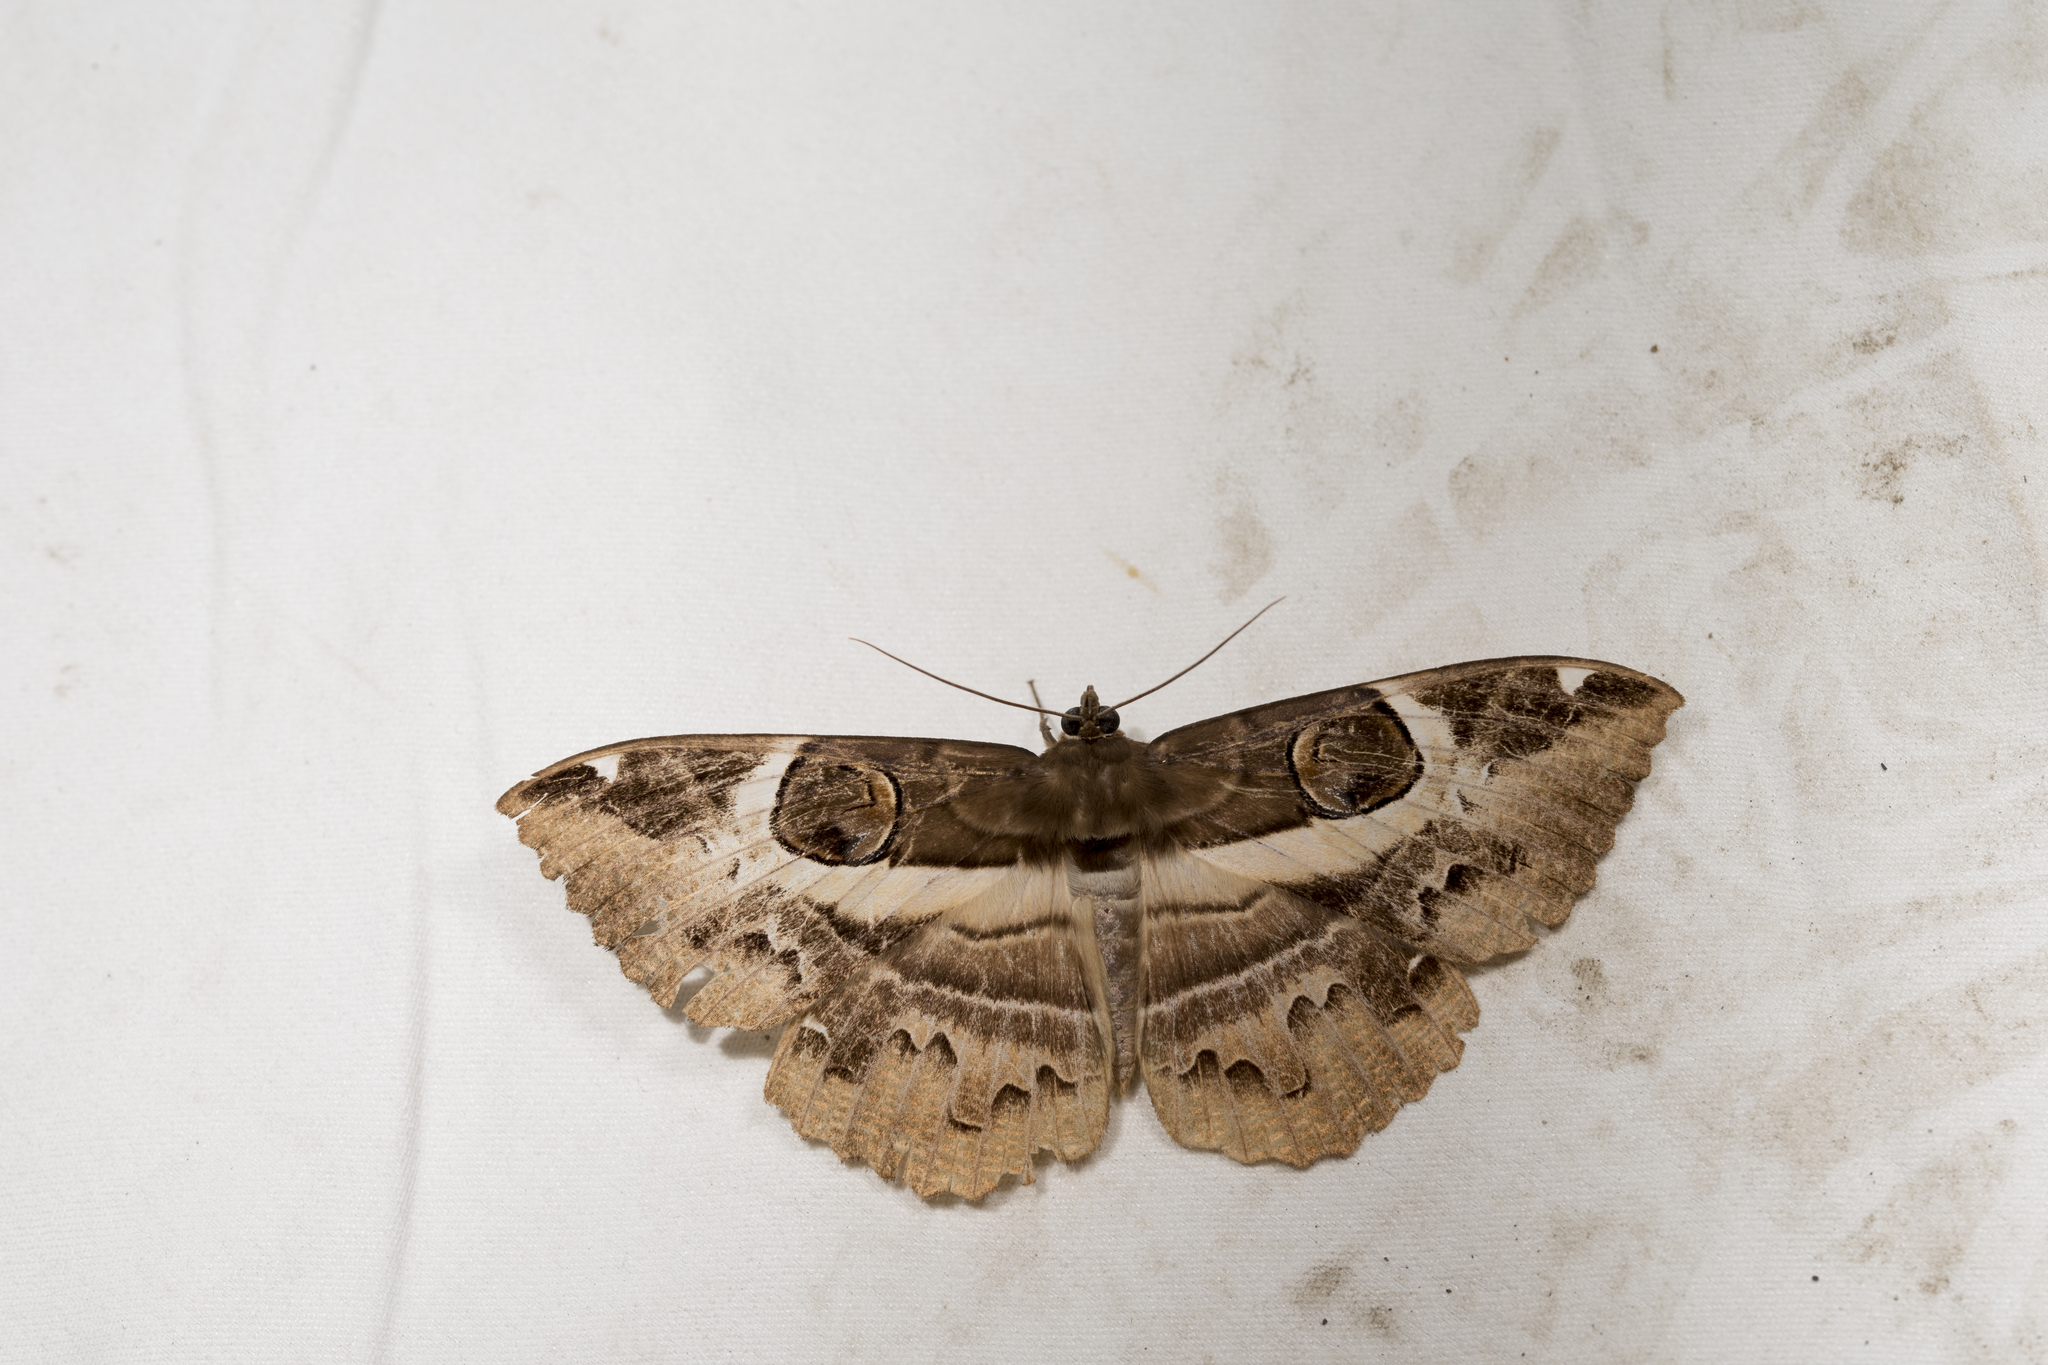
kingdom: Animalia
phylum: Arthropoda
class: Insecta
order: Lepidoptera
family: Erebidae
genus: Erebus
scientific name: Erebus ephesperis
